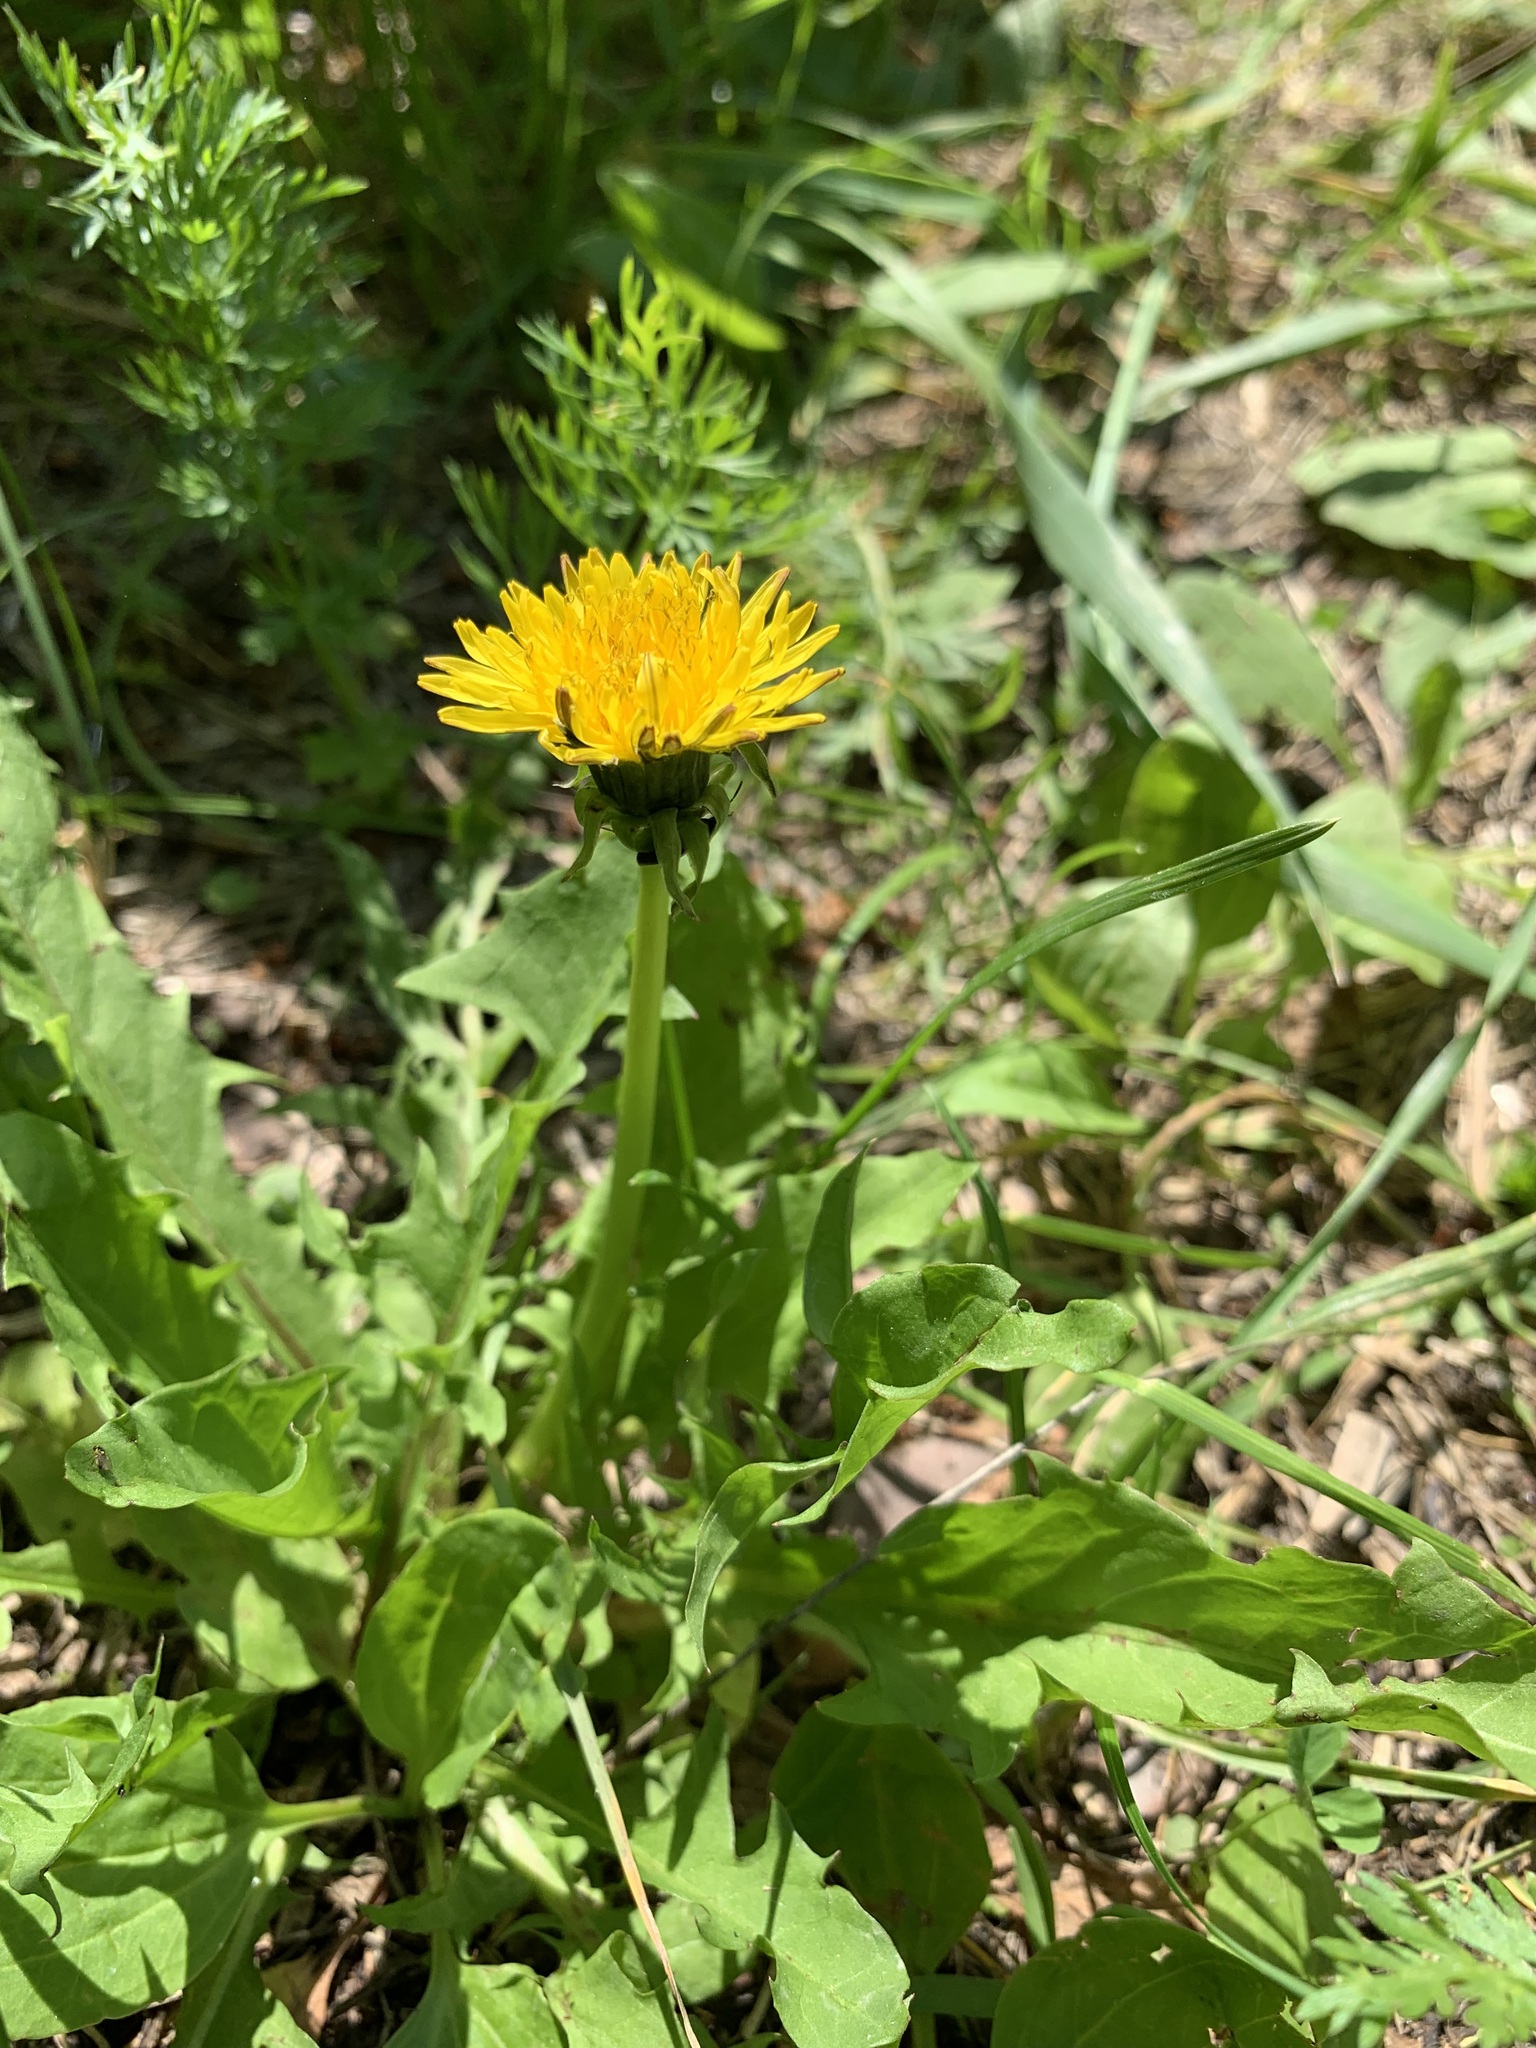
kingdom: Plantae
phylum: Tracheophyta
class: Magnoliopsida
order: Asterales
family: Asteraceae
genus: Taraxacum
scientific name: Taraxacum officinale
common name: Common dandelion
